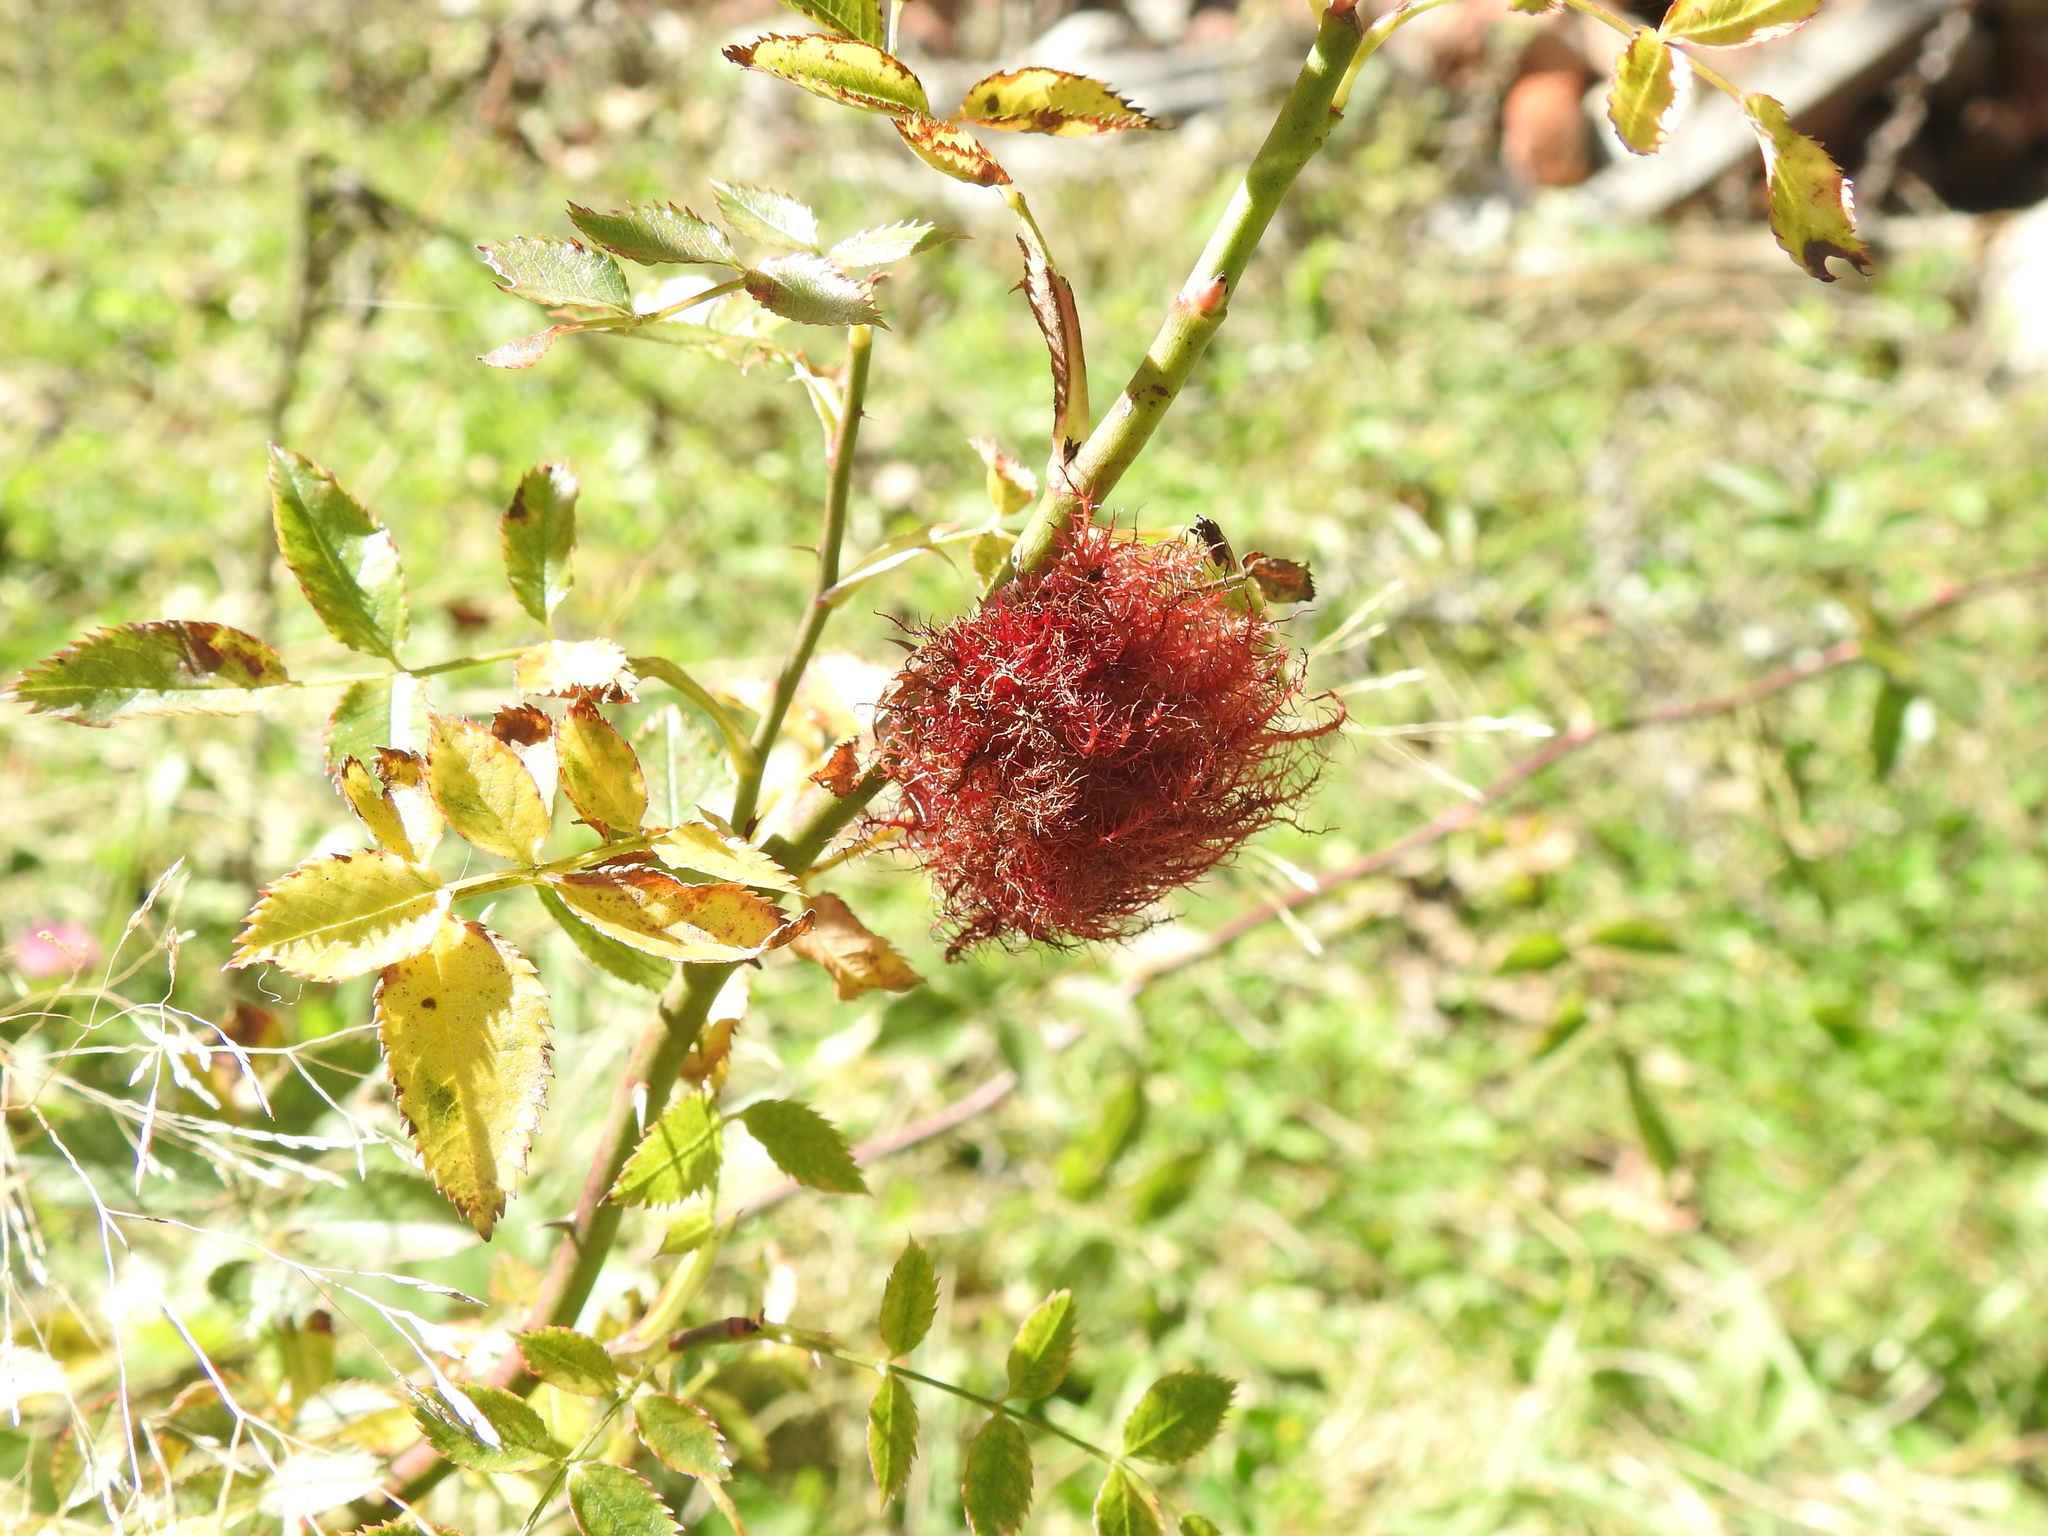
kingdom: Animalia
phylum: Arthropoda
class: Insecta
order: Hymenoptera
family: Cynipidae
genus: Diplolepis
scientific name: Diplolepis rosae
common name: Bedeguar gall
